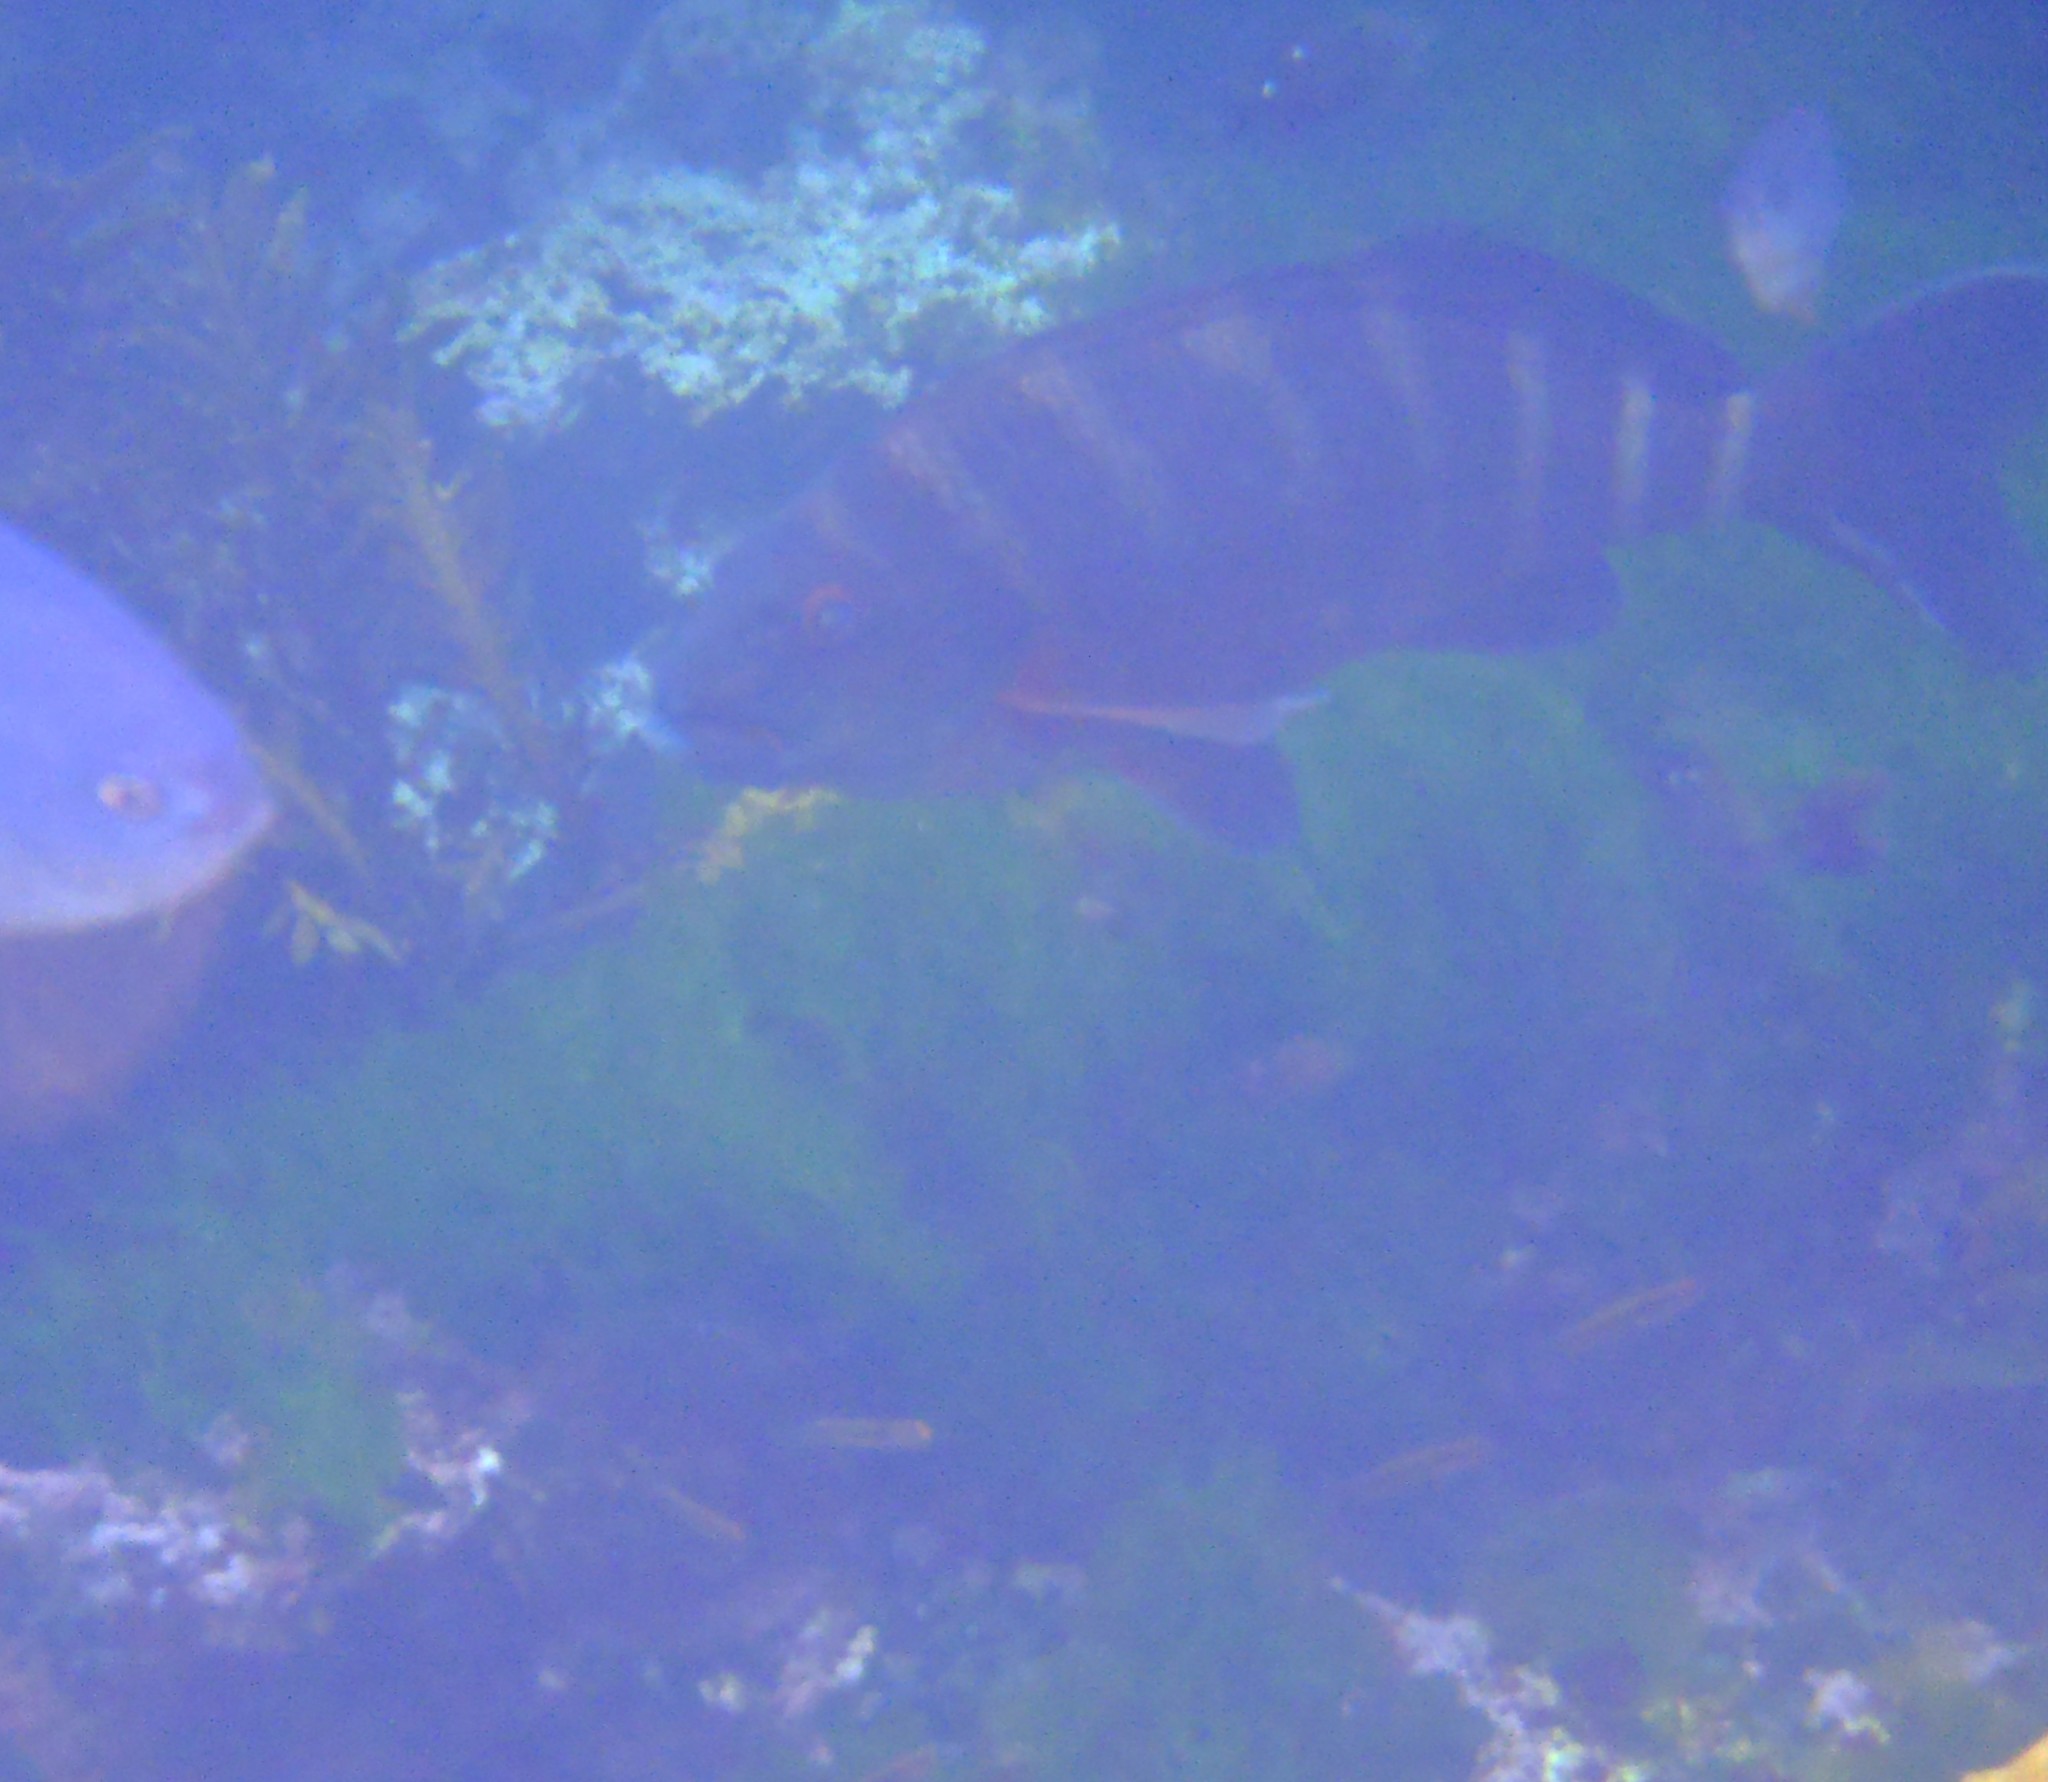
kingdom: Animalia
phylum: Chordata
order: Perciformes
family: Cheilodactylidae
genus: Cheilodactylus
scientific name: Cheilodactylus spectabilis
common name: Red moki
